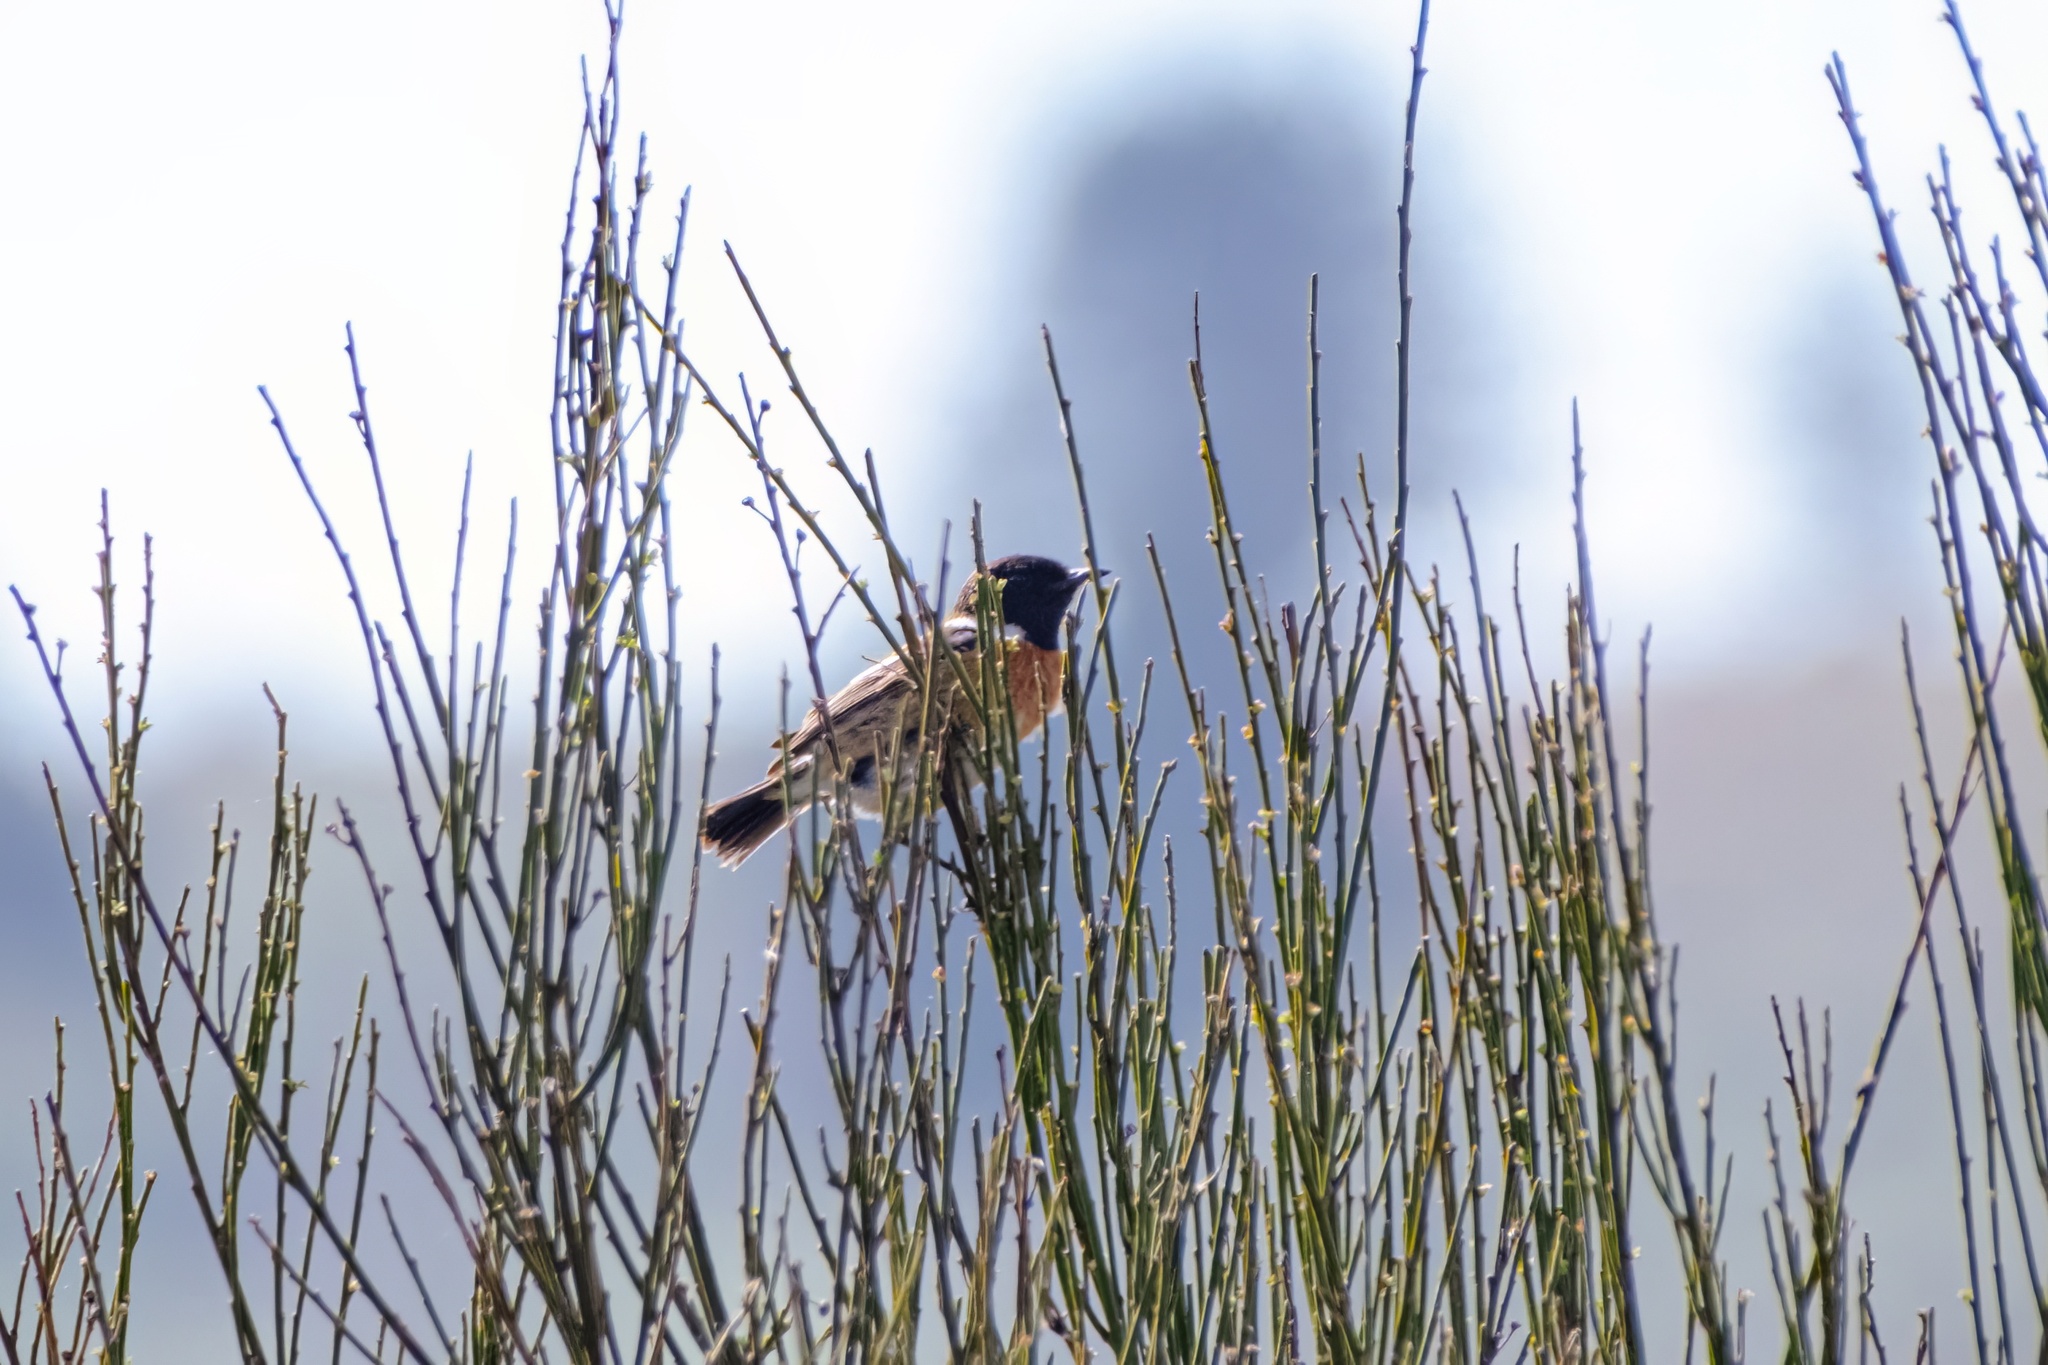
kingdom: Animalia
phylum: Chordata
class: Aves
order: Passeriformes
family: Muscicapidae
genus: Saxicola
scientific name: Saxicola rubicola
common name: European stonechat
